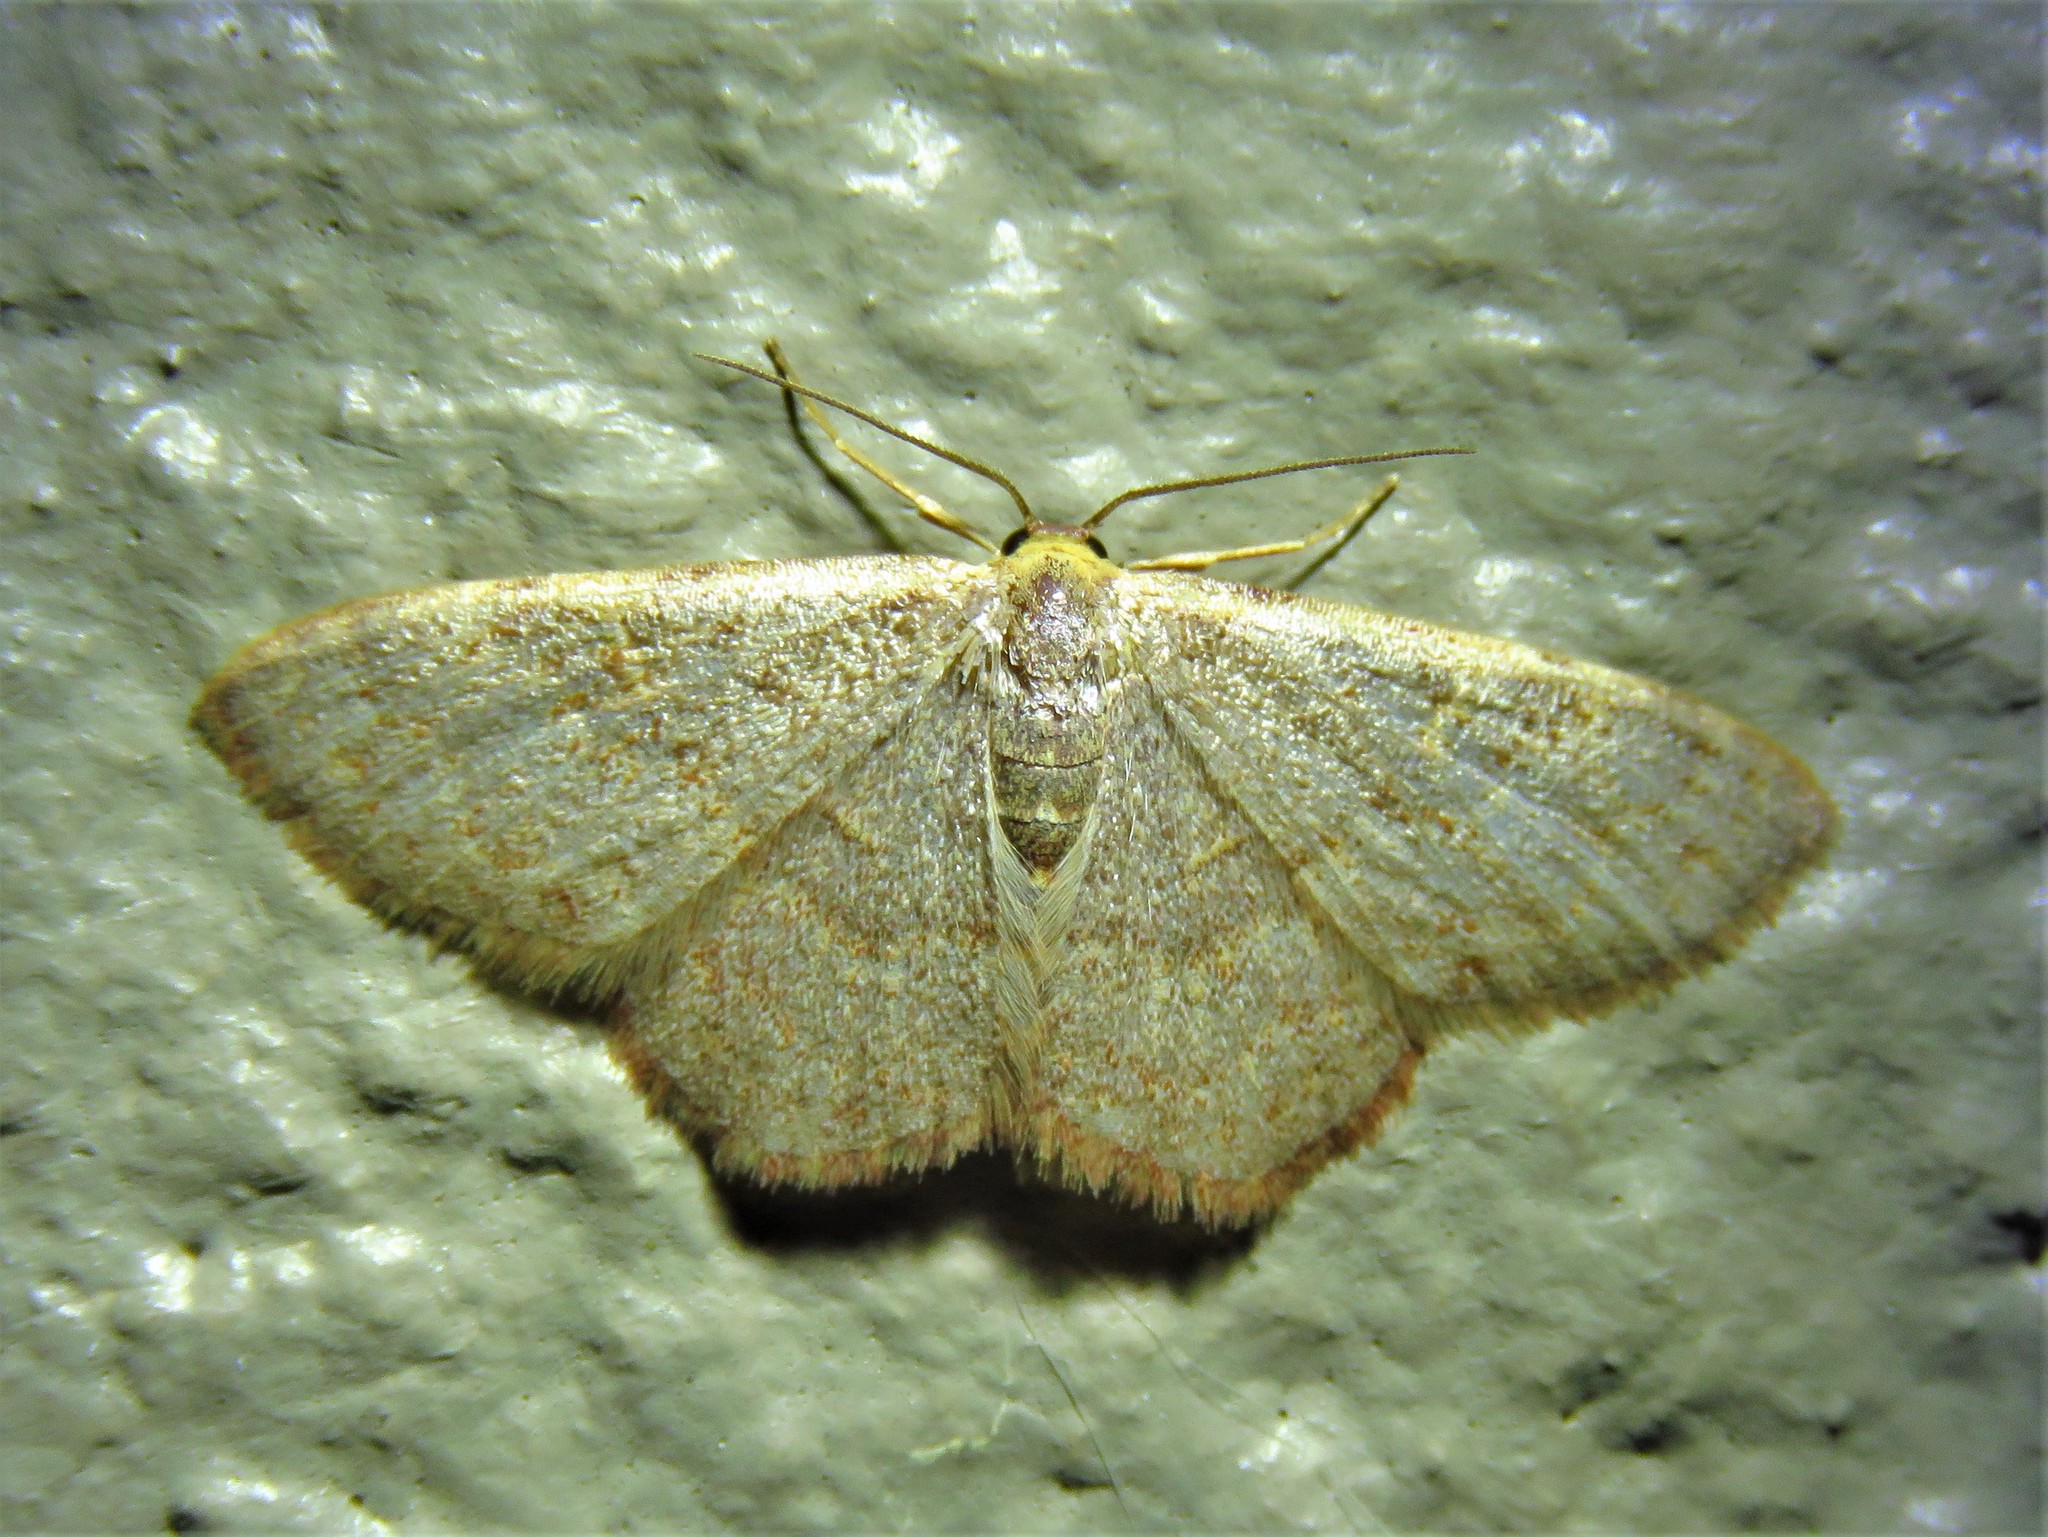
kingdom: Animalia
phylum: Arthropoda
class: Insecta
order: Lepidoptera
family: Geometridae
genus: Leptostales
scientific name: Leptostales pannaria
